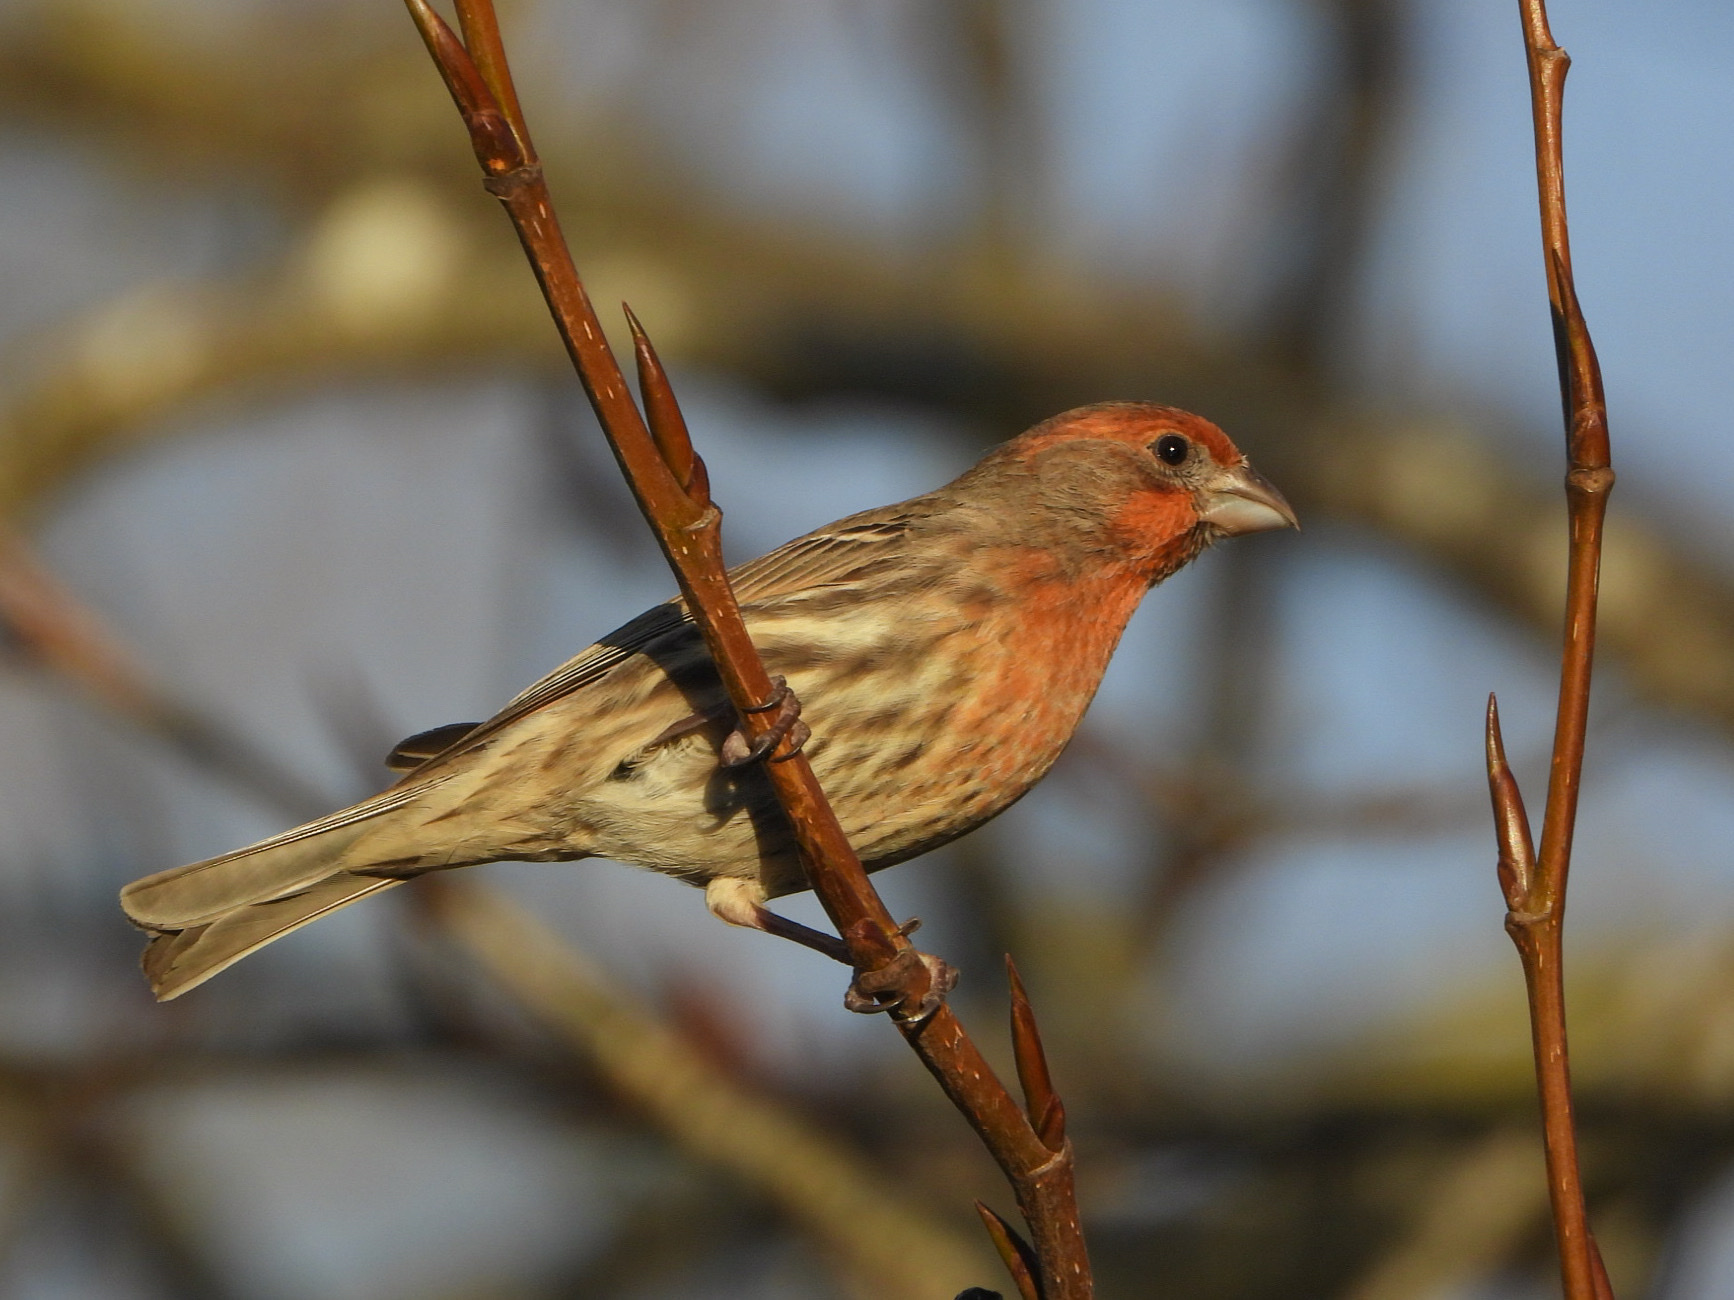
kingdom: Animalia
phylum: Chordata
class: Aves
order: Passeriformes
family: Fringillidae
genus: Haemorhous
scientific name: Haemorhous mexicanus
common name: House finch
